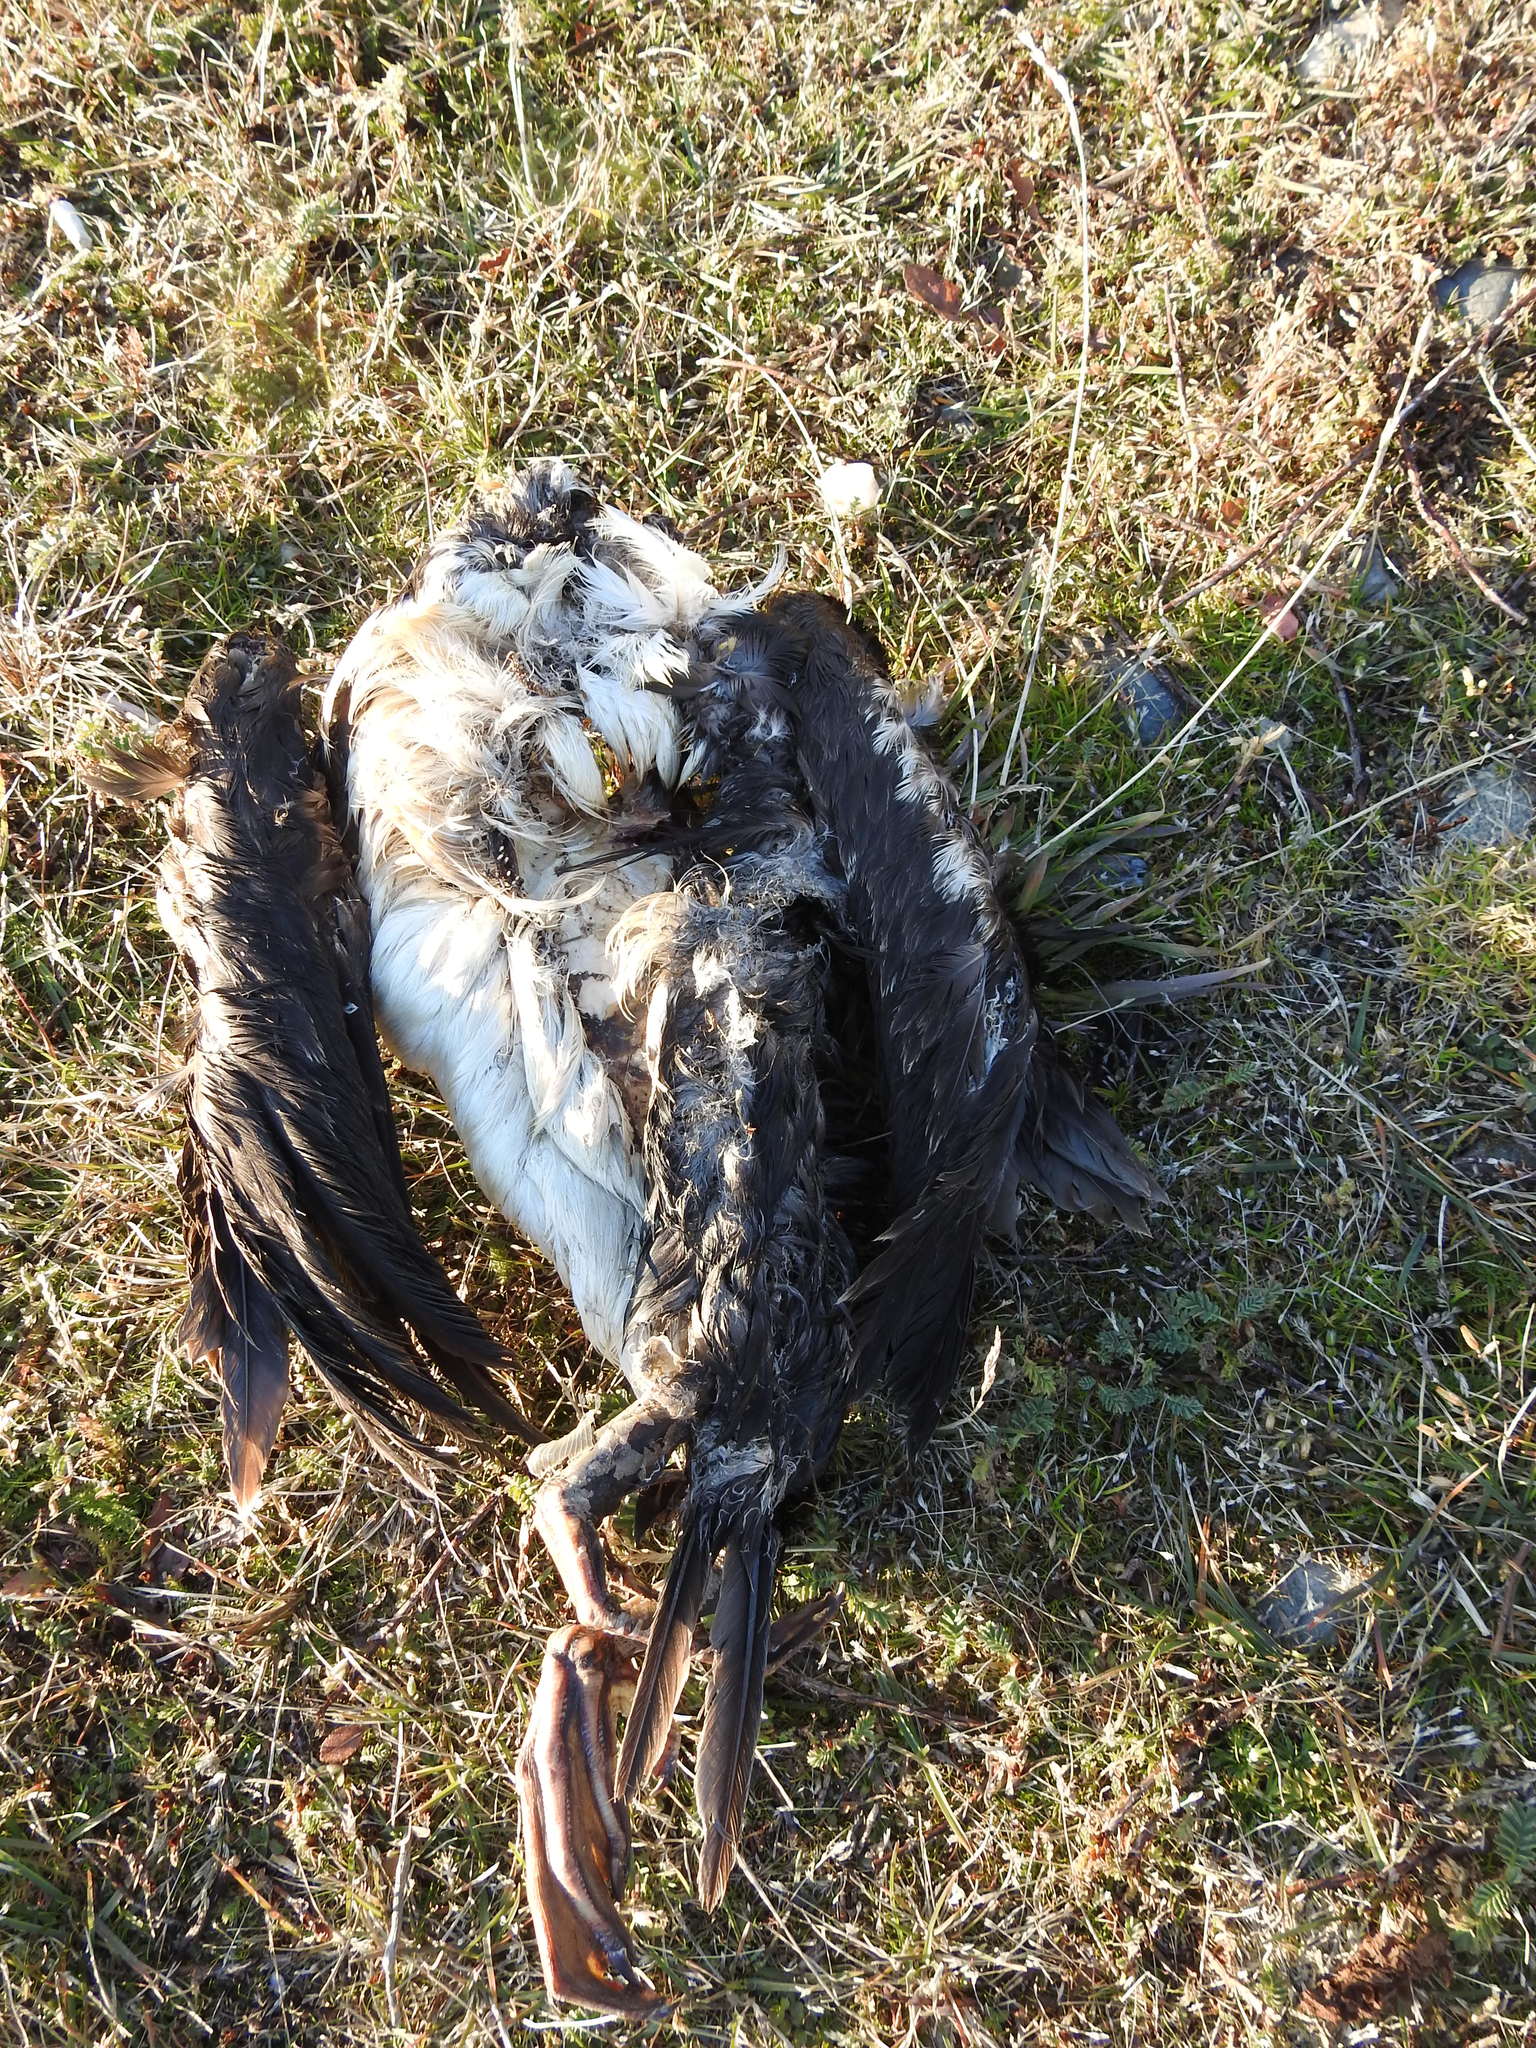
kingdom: Animalia
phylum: Chordata
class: Aves
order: Suliformes
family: Phalacrocoracidae
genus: Leucocarbo
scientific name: Leucocarbo atriceps
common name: Imperial shag
